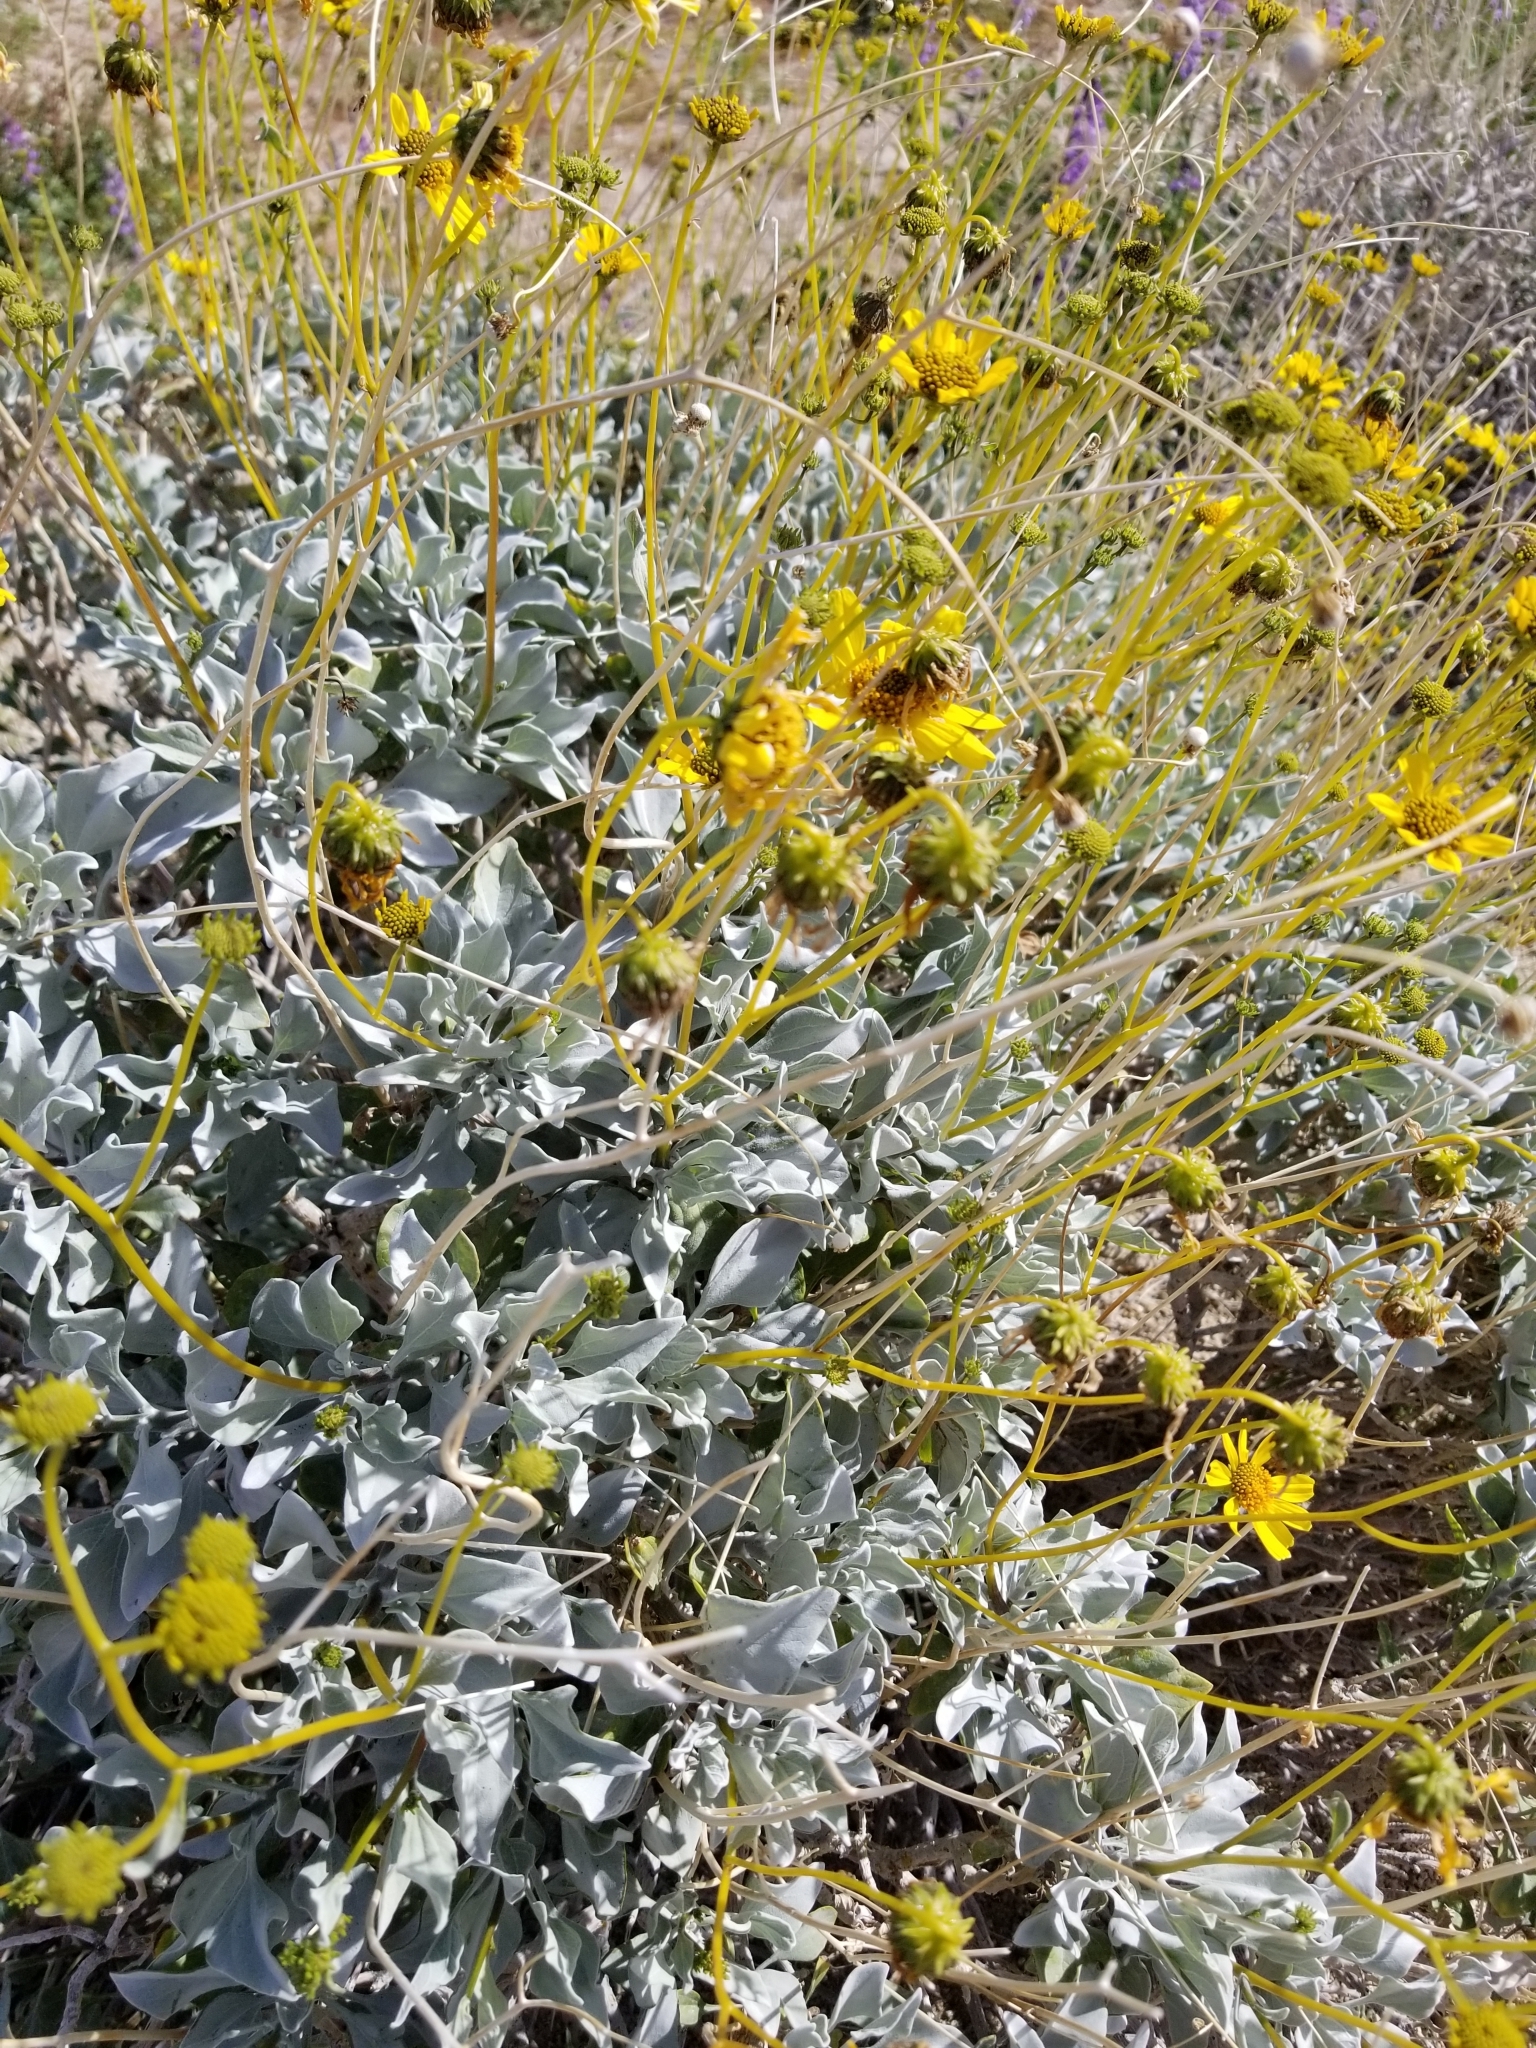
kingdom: Plantae
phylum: Tracheophyta
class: Magnoliopsida
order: Asterales
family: Asteraceae
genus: Encelia
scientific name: Encelia farinosa
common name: Brittlebush
